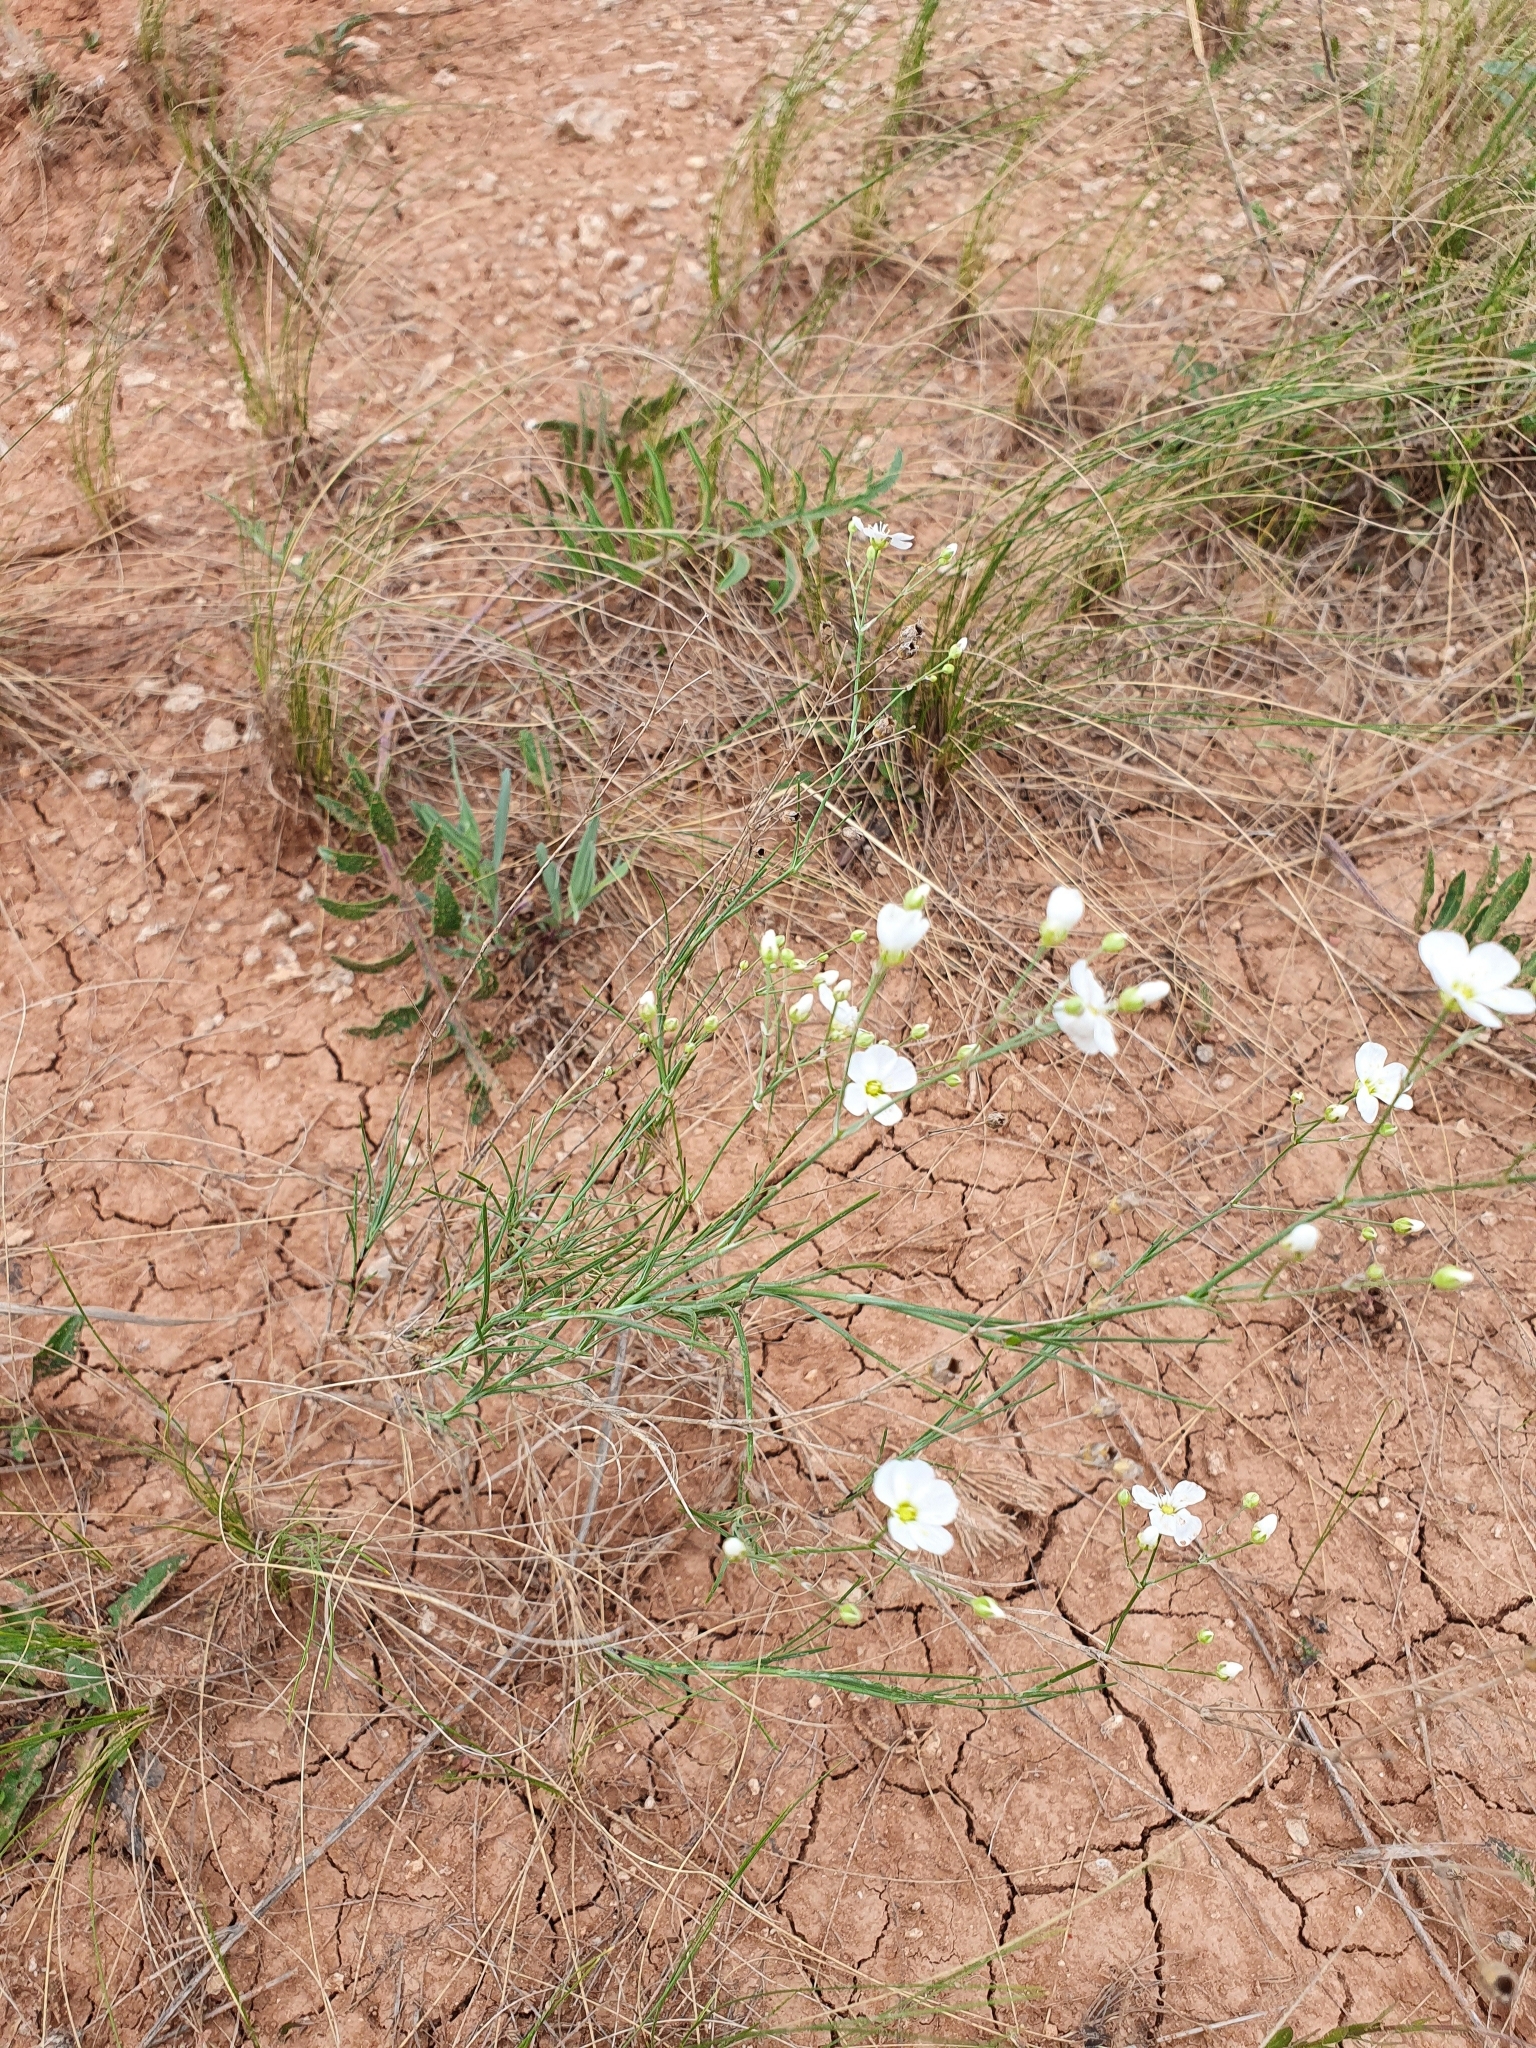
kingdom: Plantae
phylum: Tracheophyta
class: Magnoliopsida
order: Caryophyllales
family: Caryophyllaceae
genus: Eremogone
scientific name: Eremogone saxatilis
